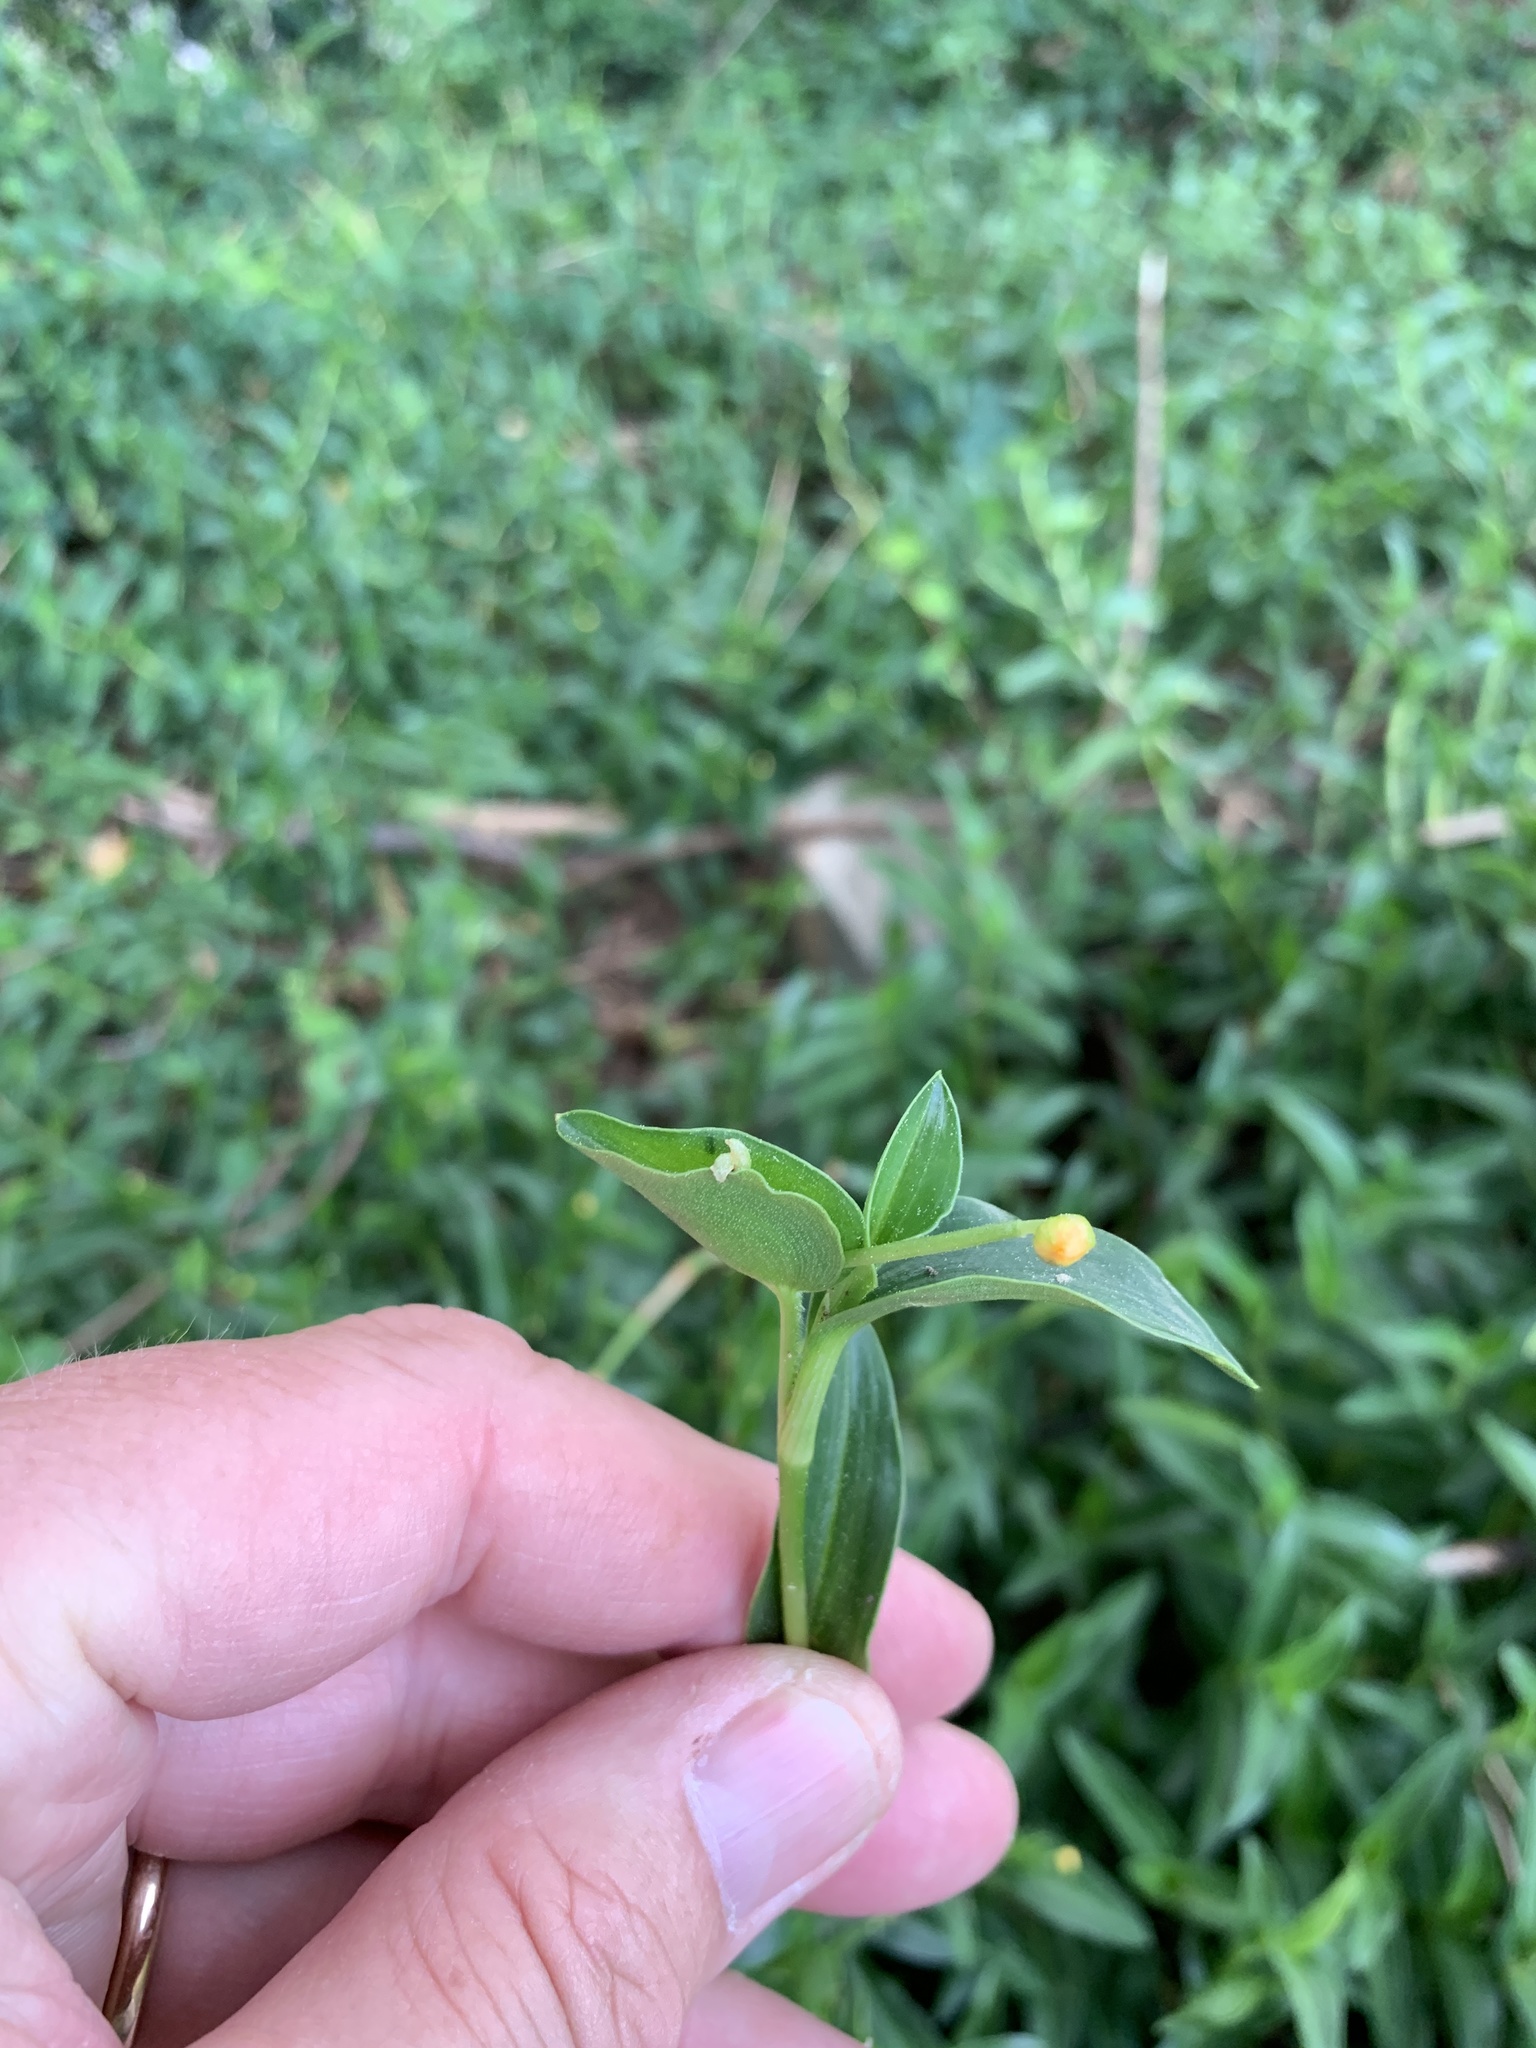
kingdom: Plantae
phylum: Tracheophyta
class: Liliopsida
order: Commelinales
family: Commelinaceae
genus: Commelina
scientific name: Commelina africana
